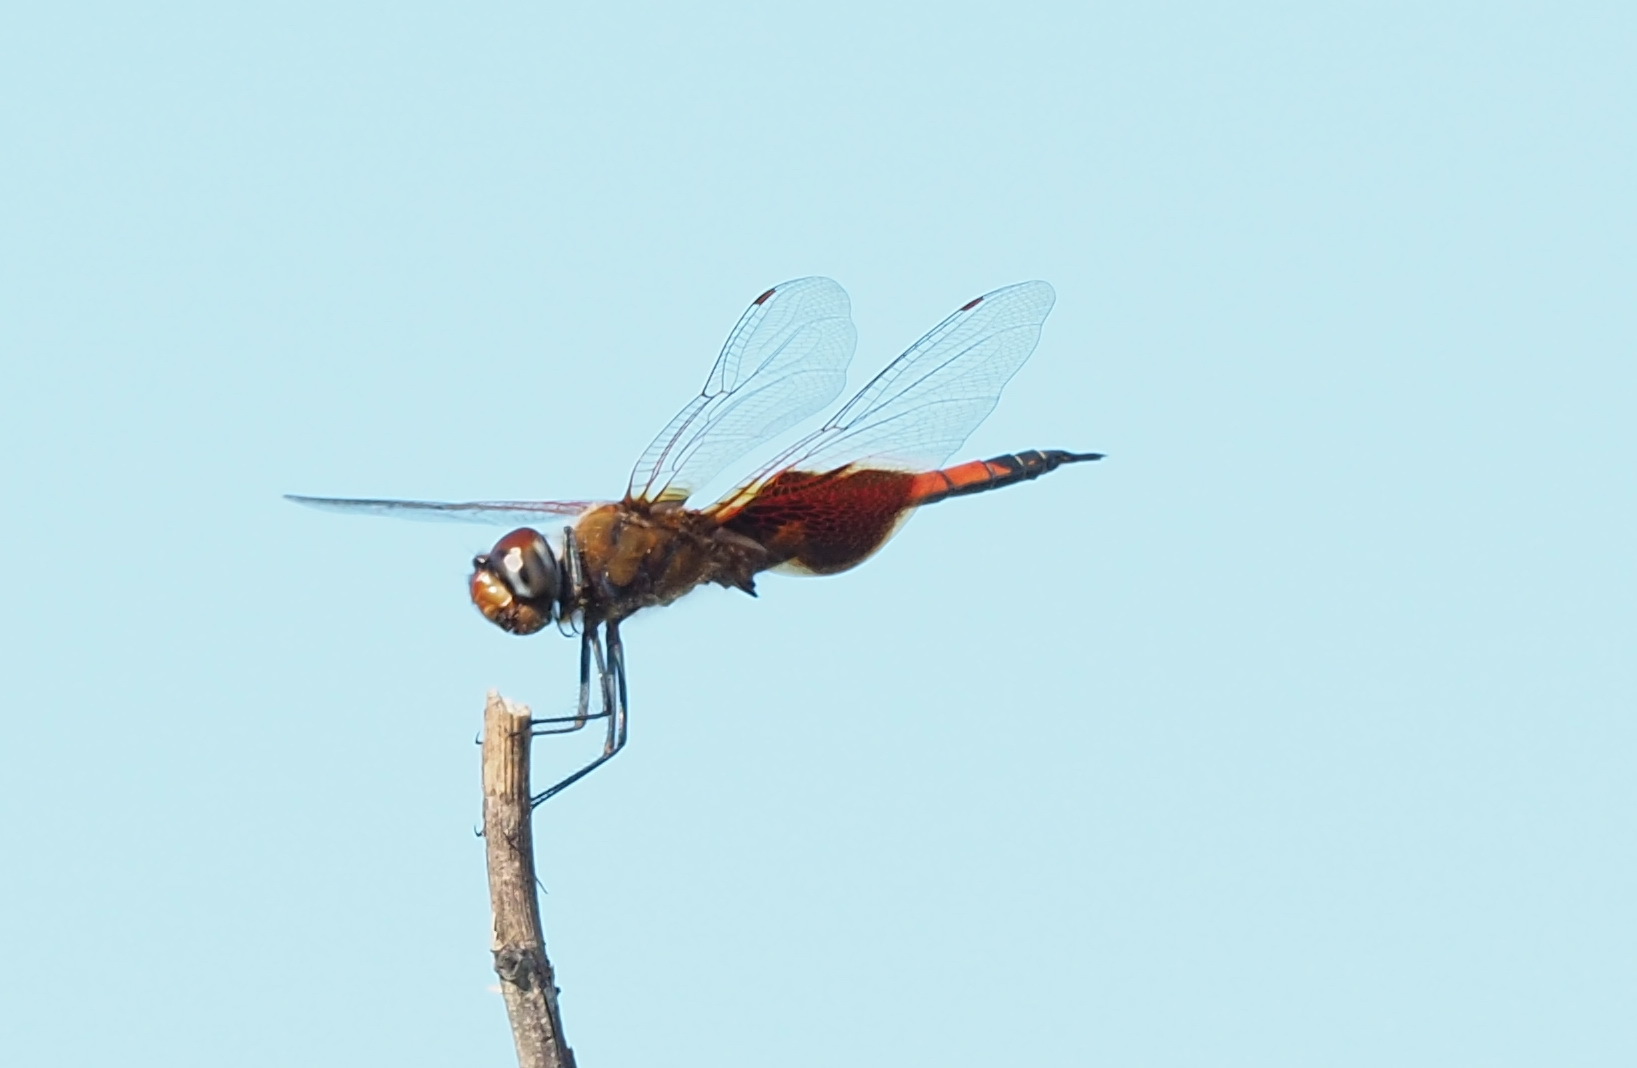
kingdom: Animalia
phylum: Arthropoda
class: Insecta
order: Odonata
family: Libellulidae
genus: Tramea
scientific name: Tramea virginia
